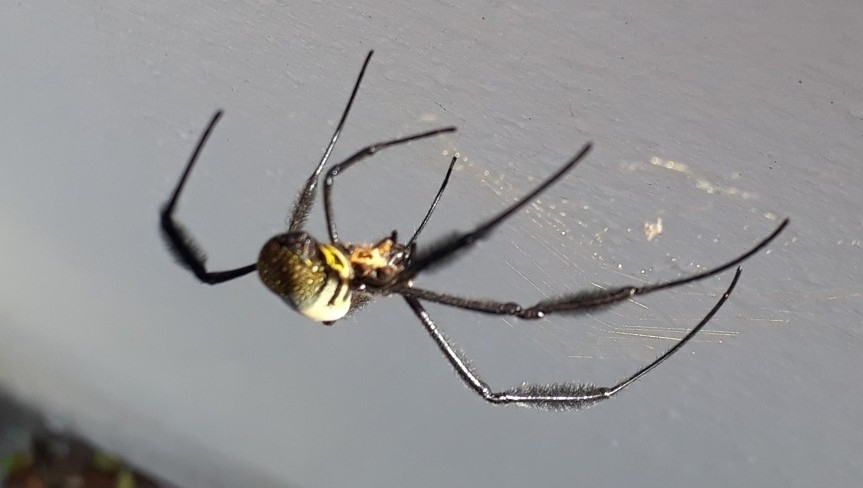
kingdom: Animalia
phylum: Arthropoda
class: Arachnida
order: Araneae
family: Araneidae
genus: Trichonephila
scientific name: Trichonephila fenestrata
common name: Hairy golden orb weaver
